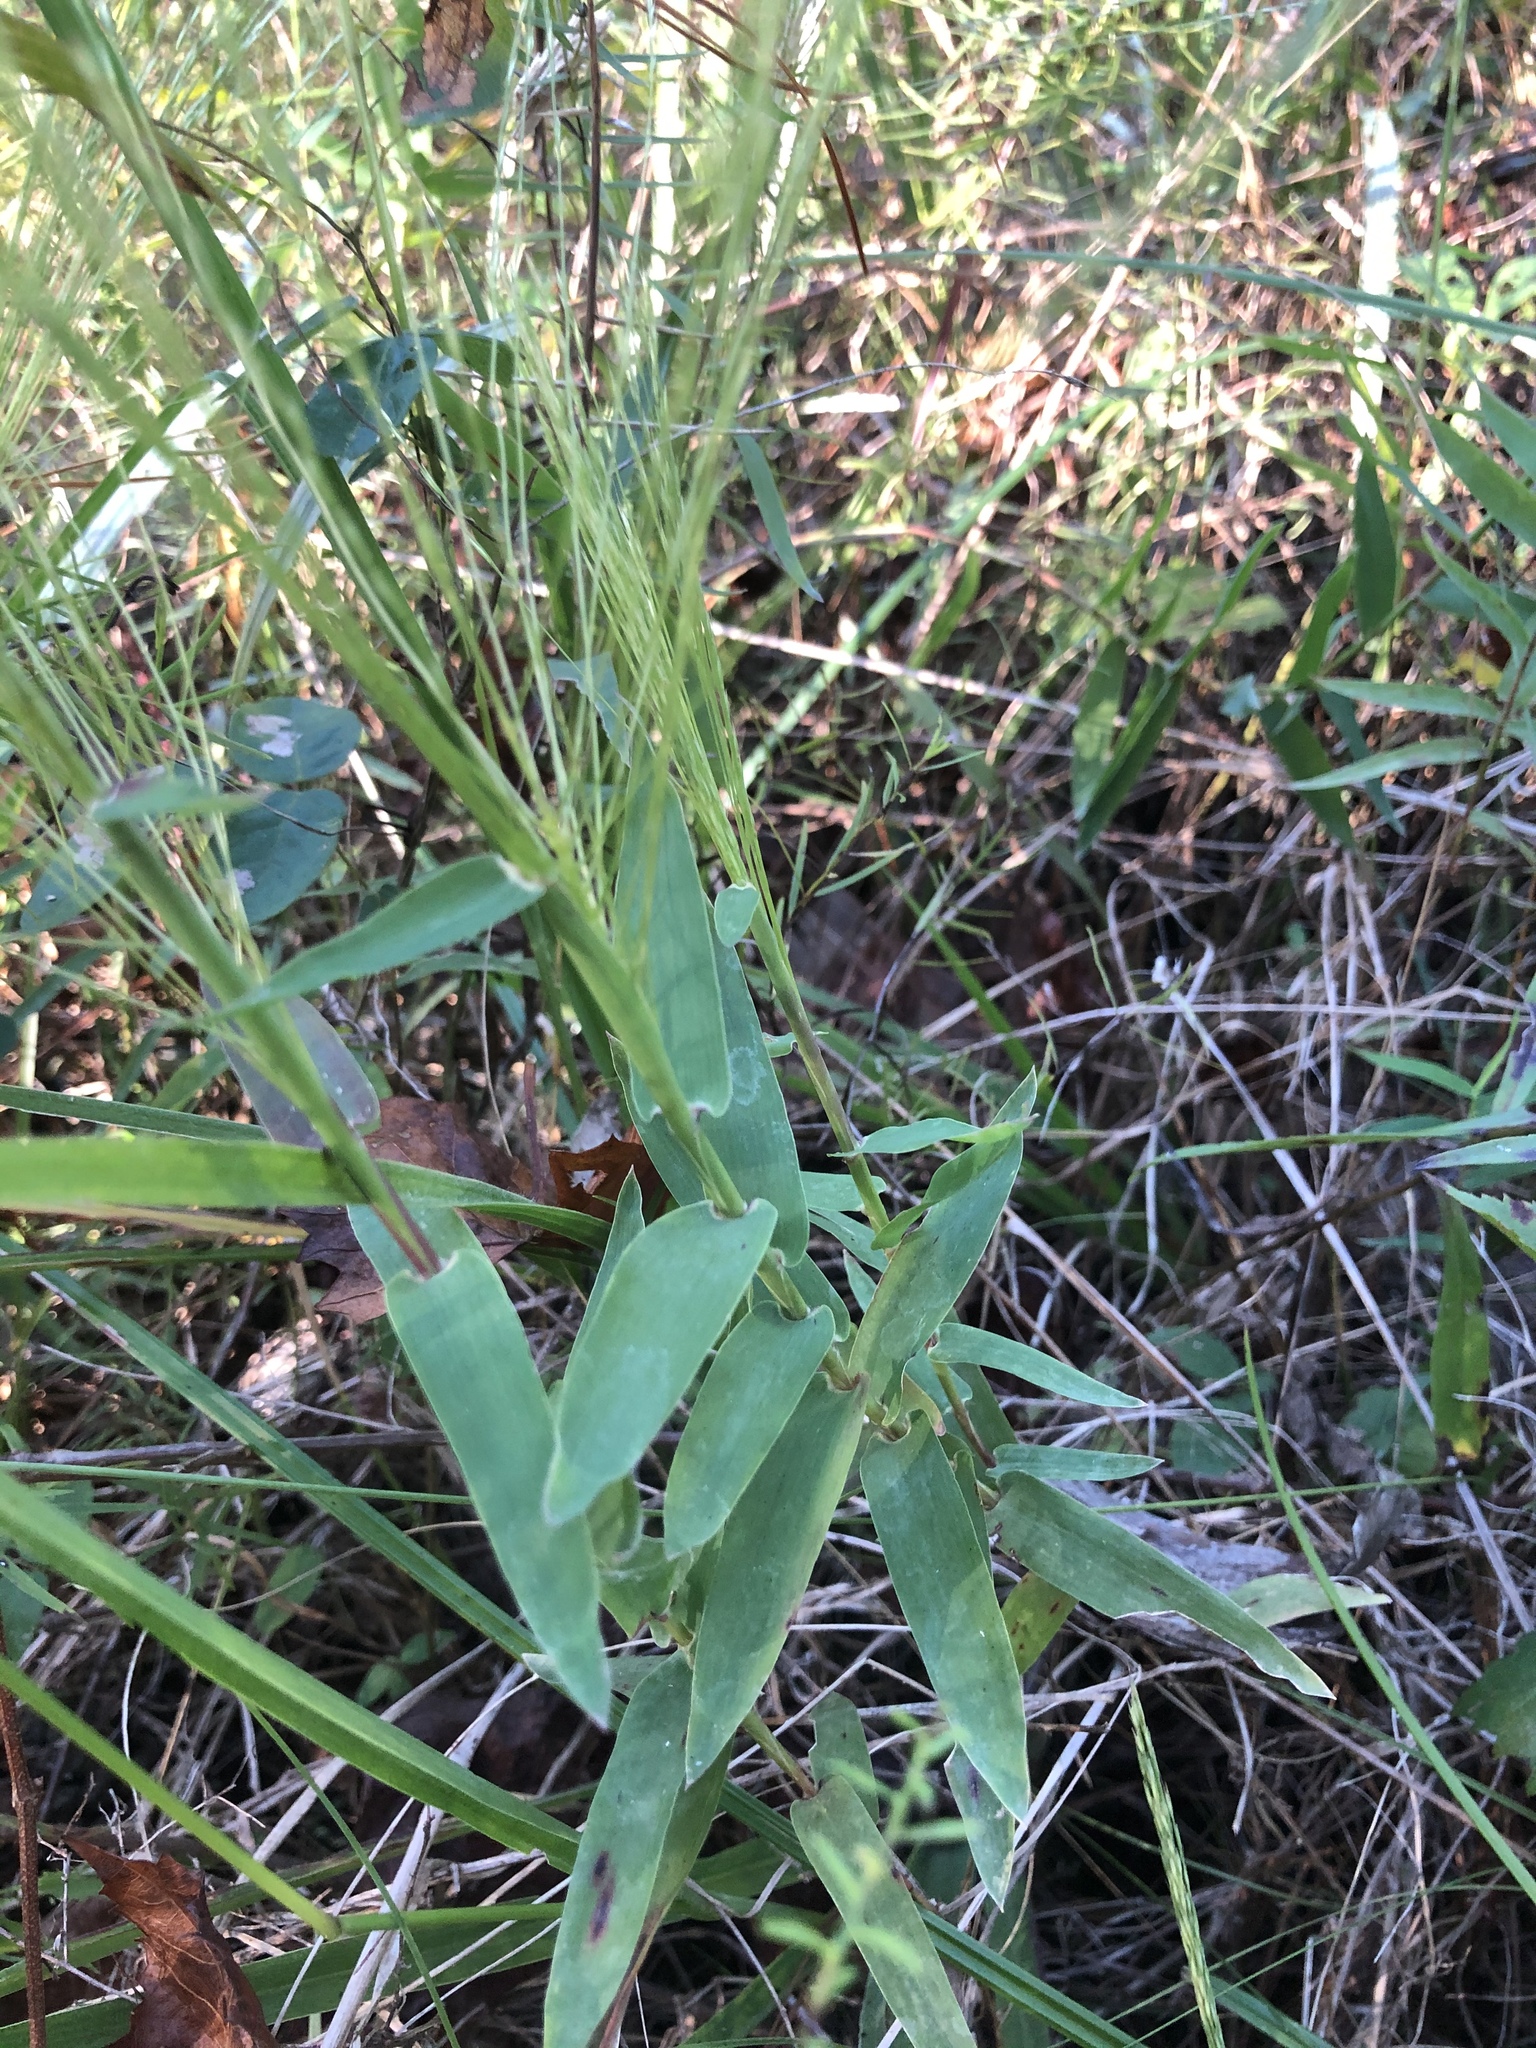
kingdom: Plantae
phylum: Tracheophyta
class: Liliopsida
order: Poales
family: Poaceae
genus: Gymnopogon
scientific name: Gymnopogon ambiguus
